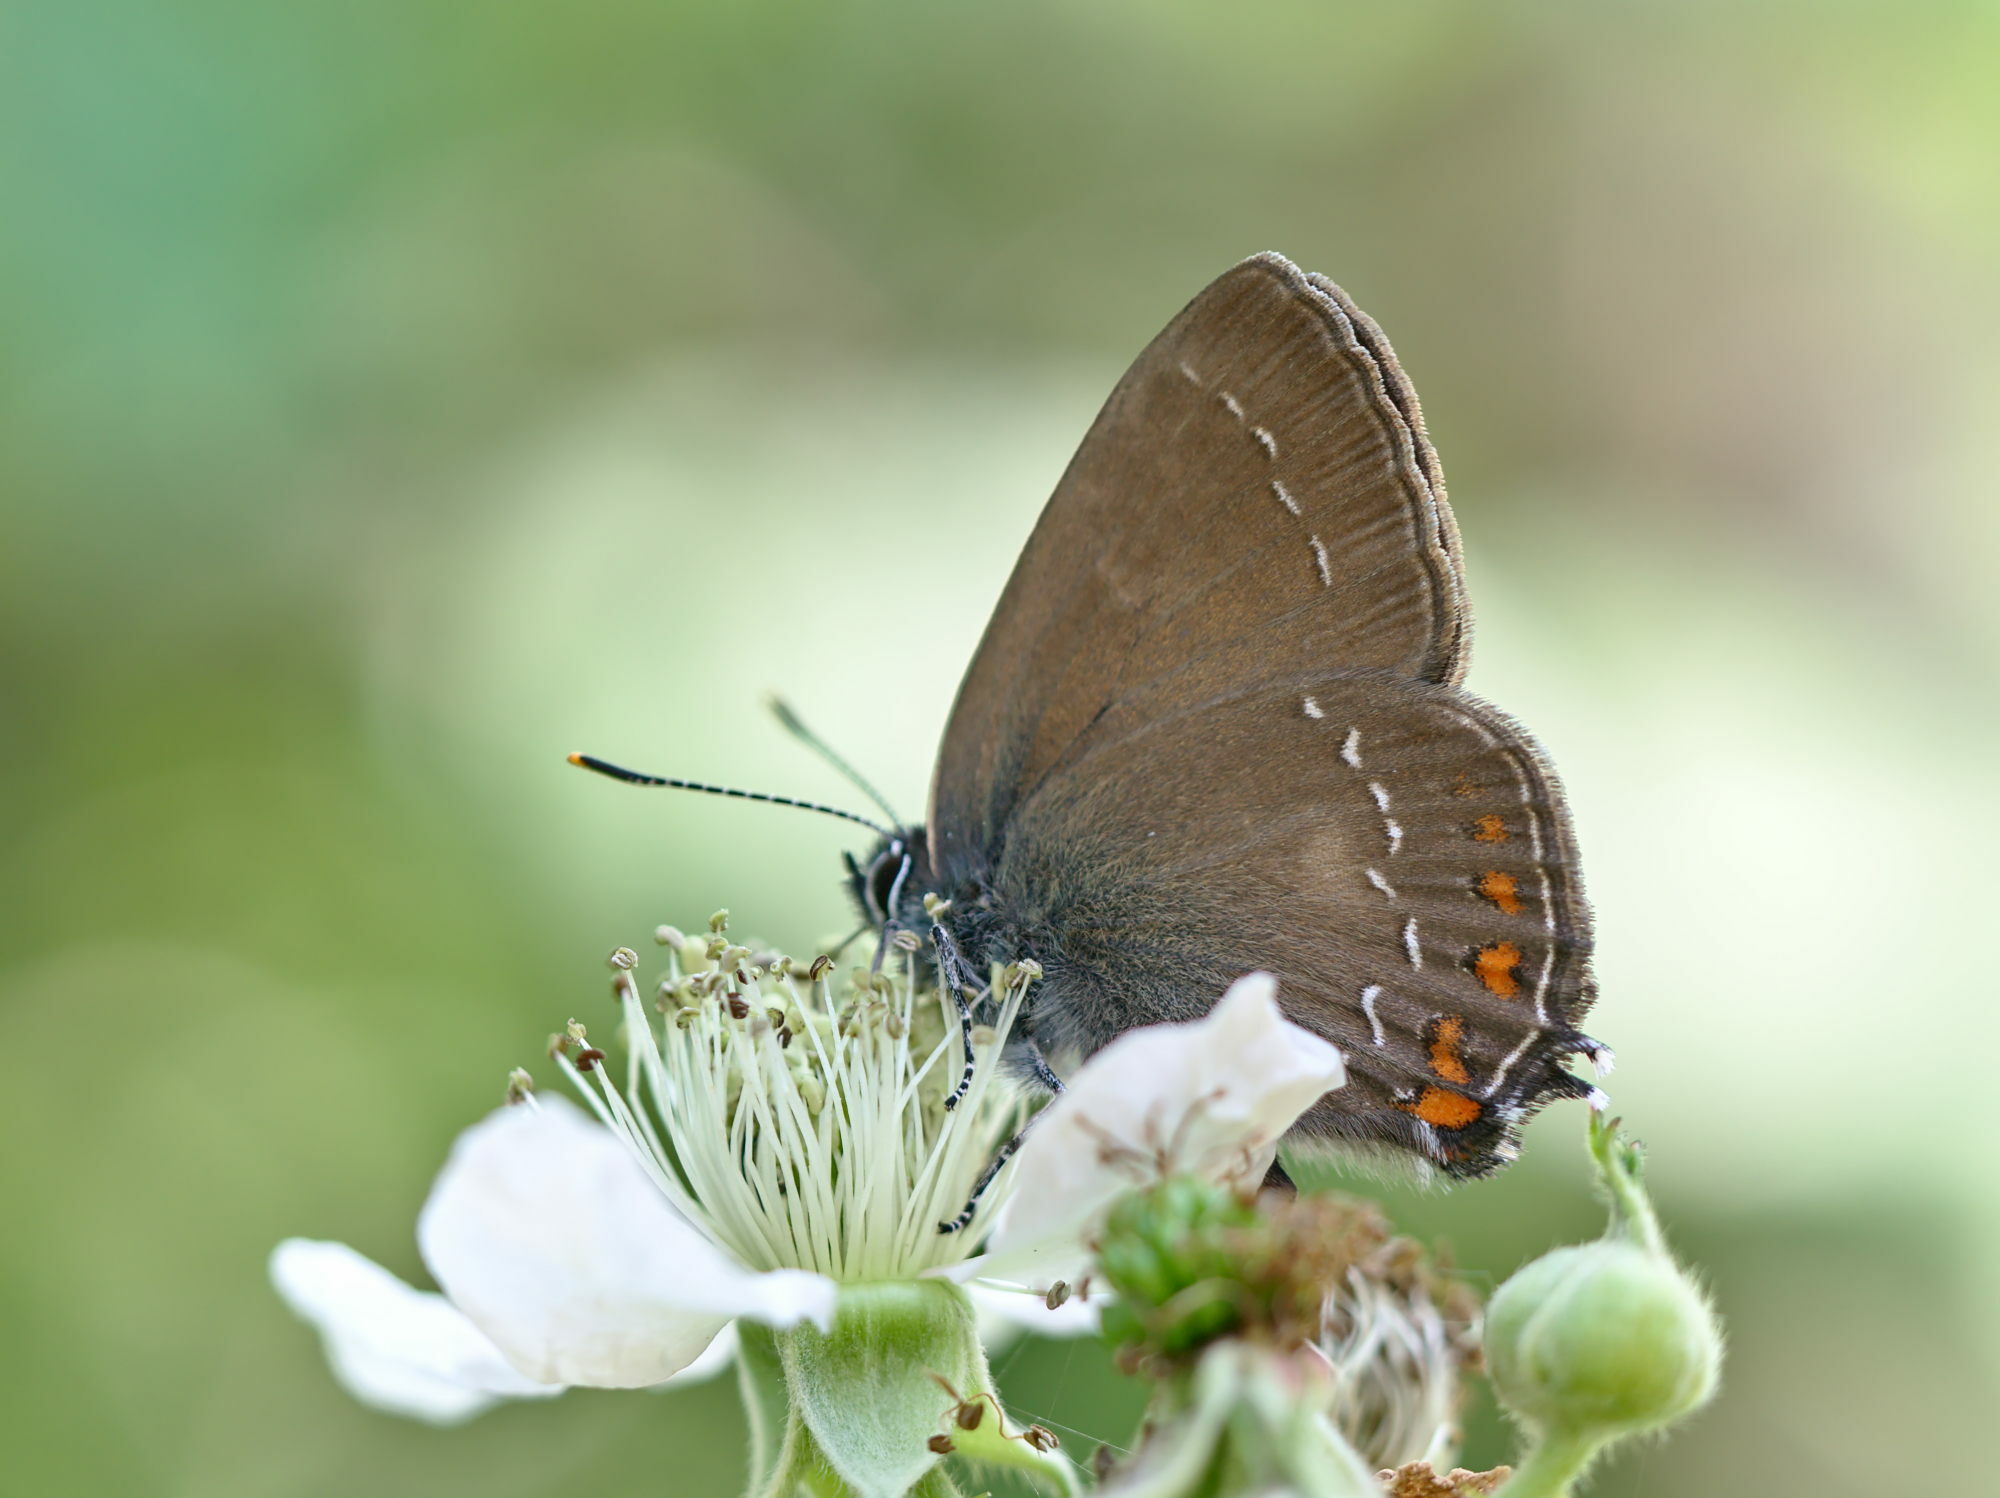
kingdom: Animalia
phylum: Arthropoda
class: Insecta
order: Lepidoptera
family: Lycaenidae
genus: Nordmannia
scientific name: Nordmannia ilicis
